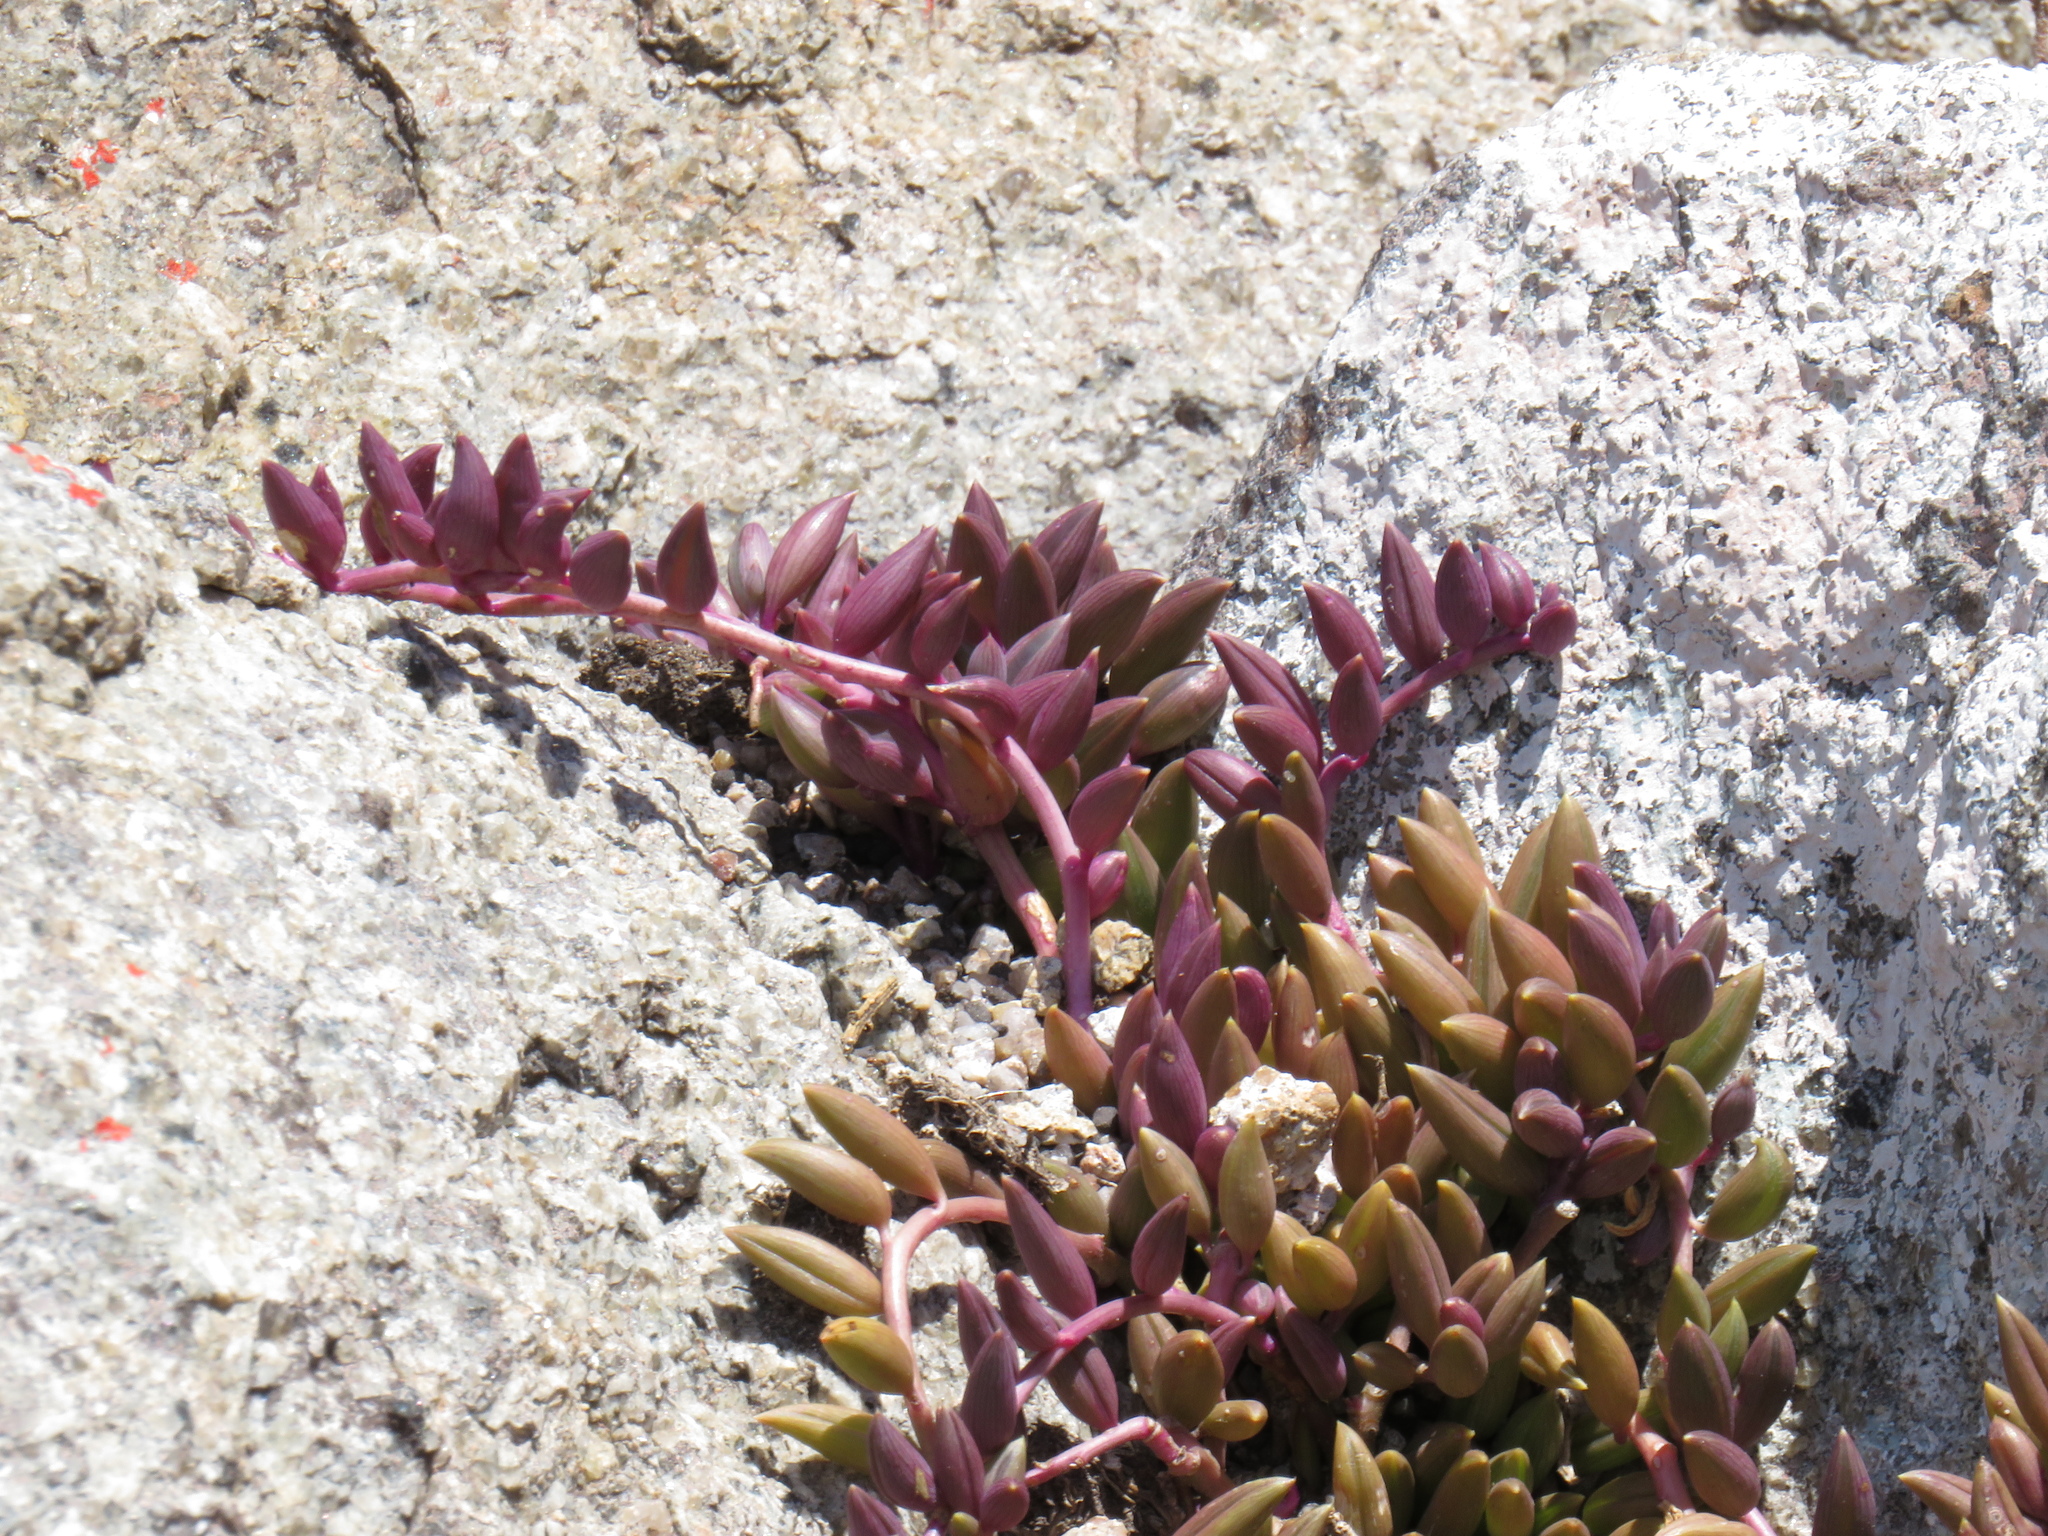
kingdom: Plantae
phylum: Tracheophyta
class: Magnoliopsida
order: Asterales
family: Asteraceae
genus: Curio
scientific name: Curio radicans
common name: Creeping-berry
